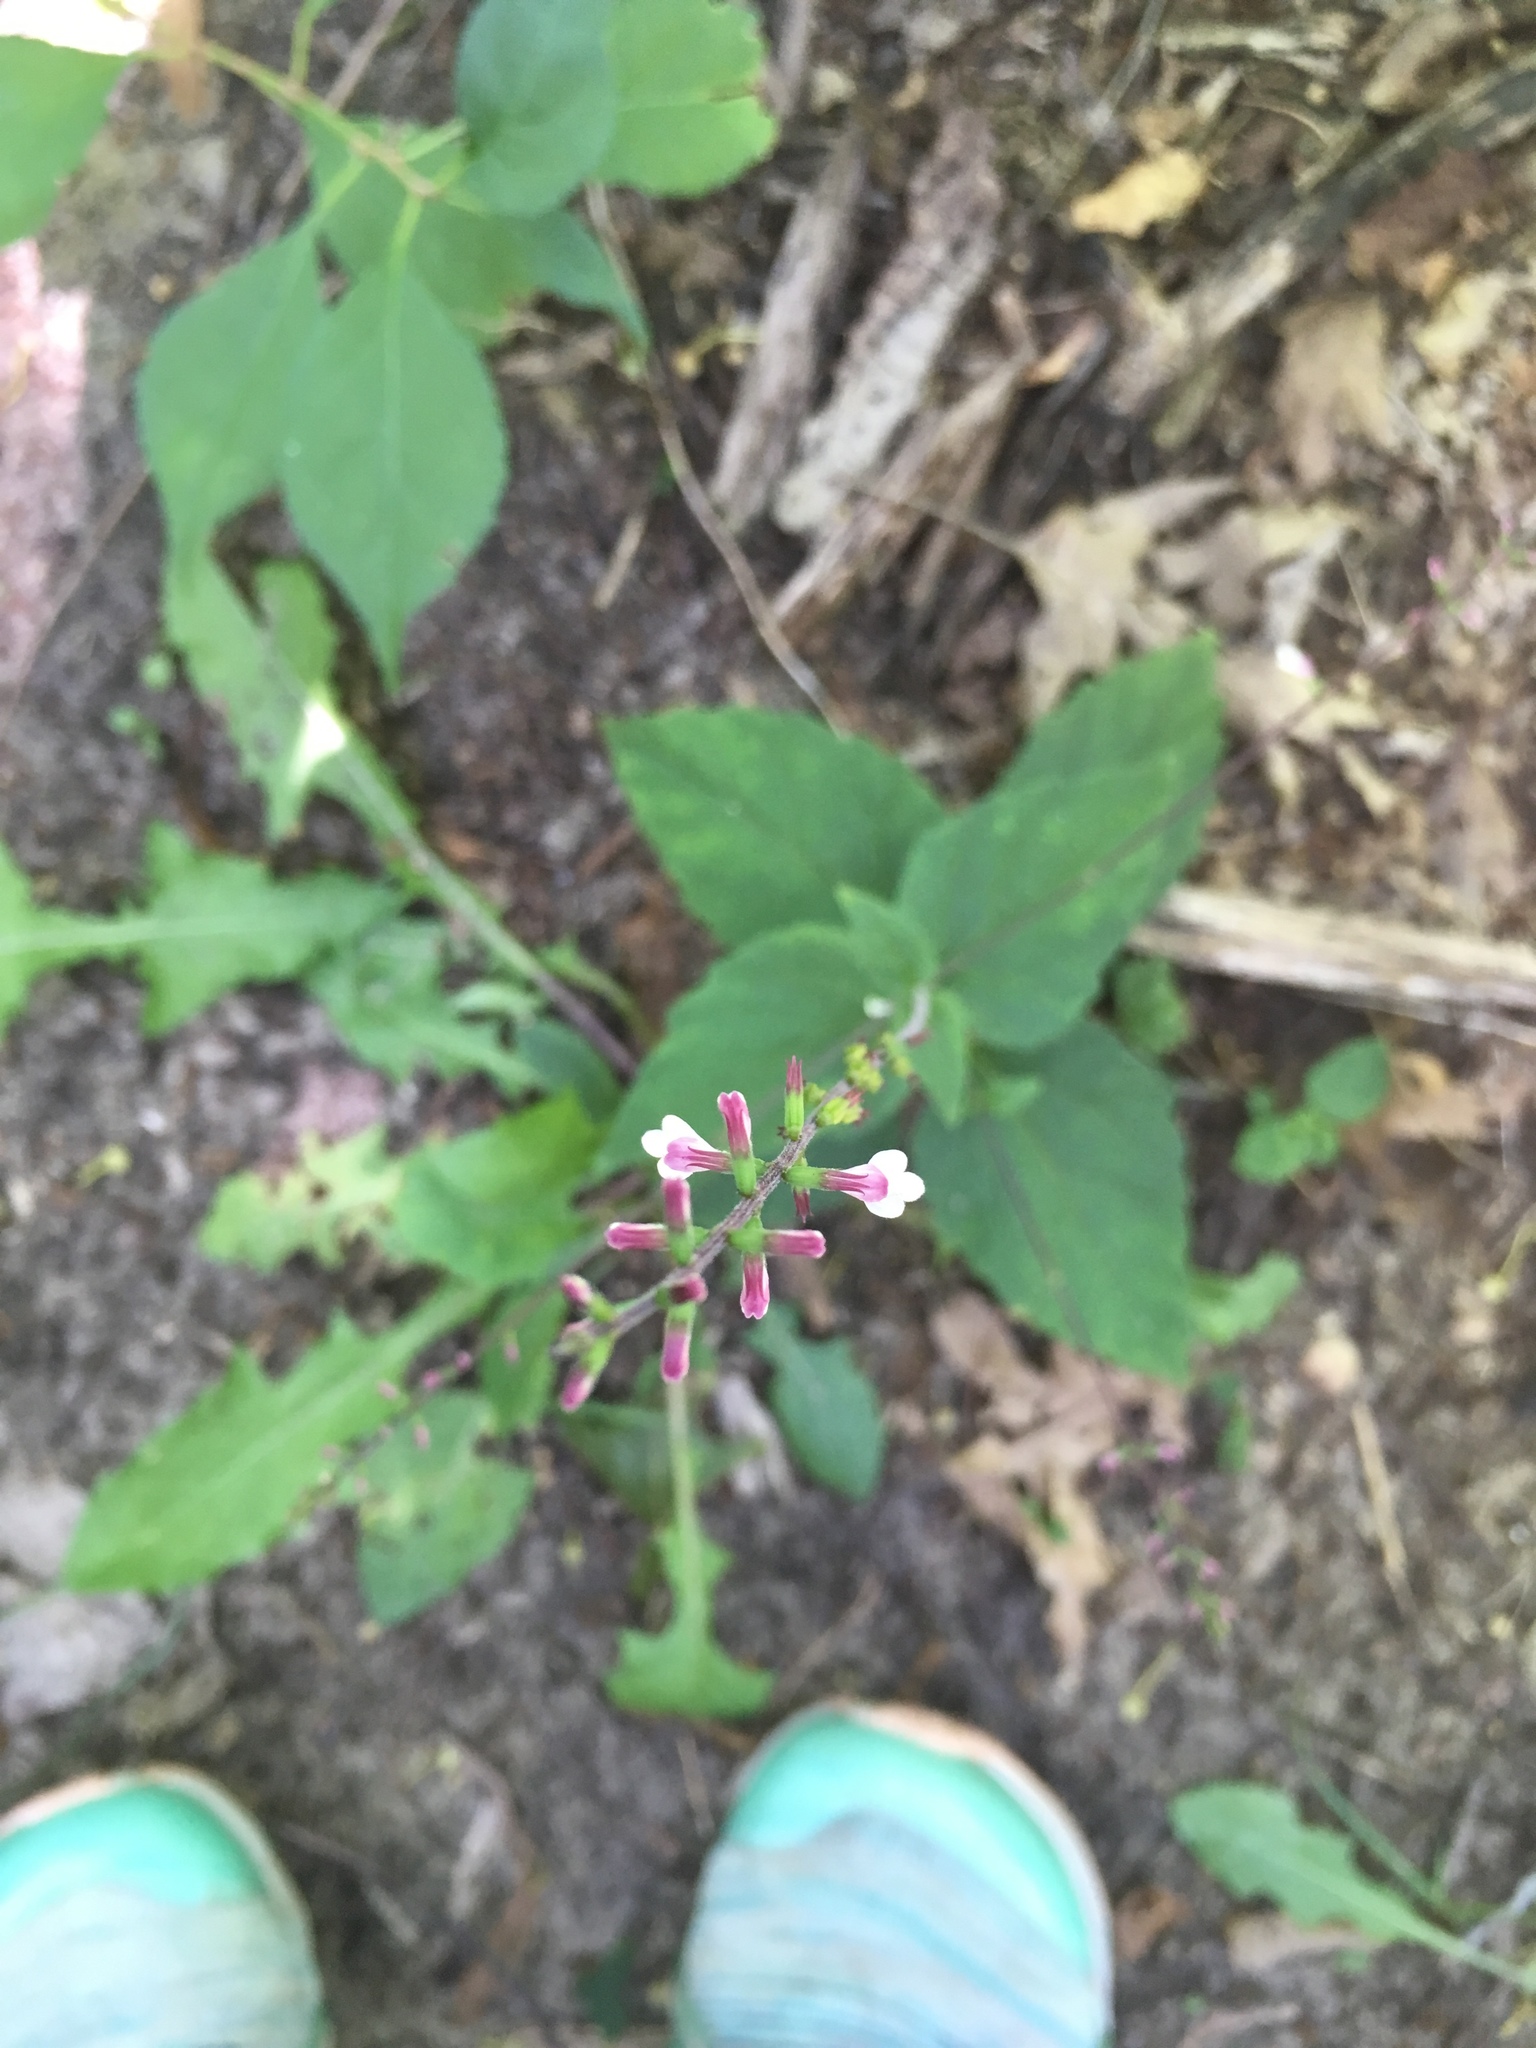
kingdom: Plantae
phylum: Tracheophyta
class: Magnoliopsida
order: Lamiales
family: Phrymaceae
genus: Phryma
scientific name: Phryma leptostachya
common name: American lopseed
